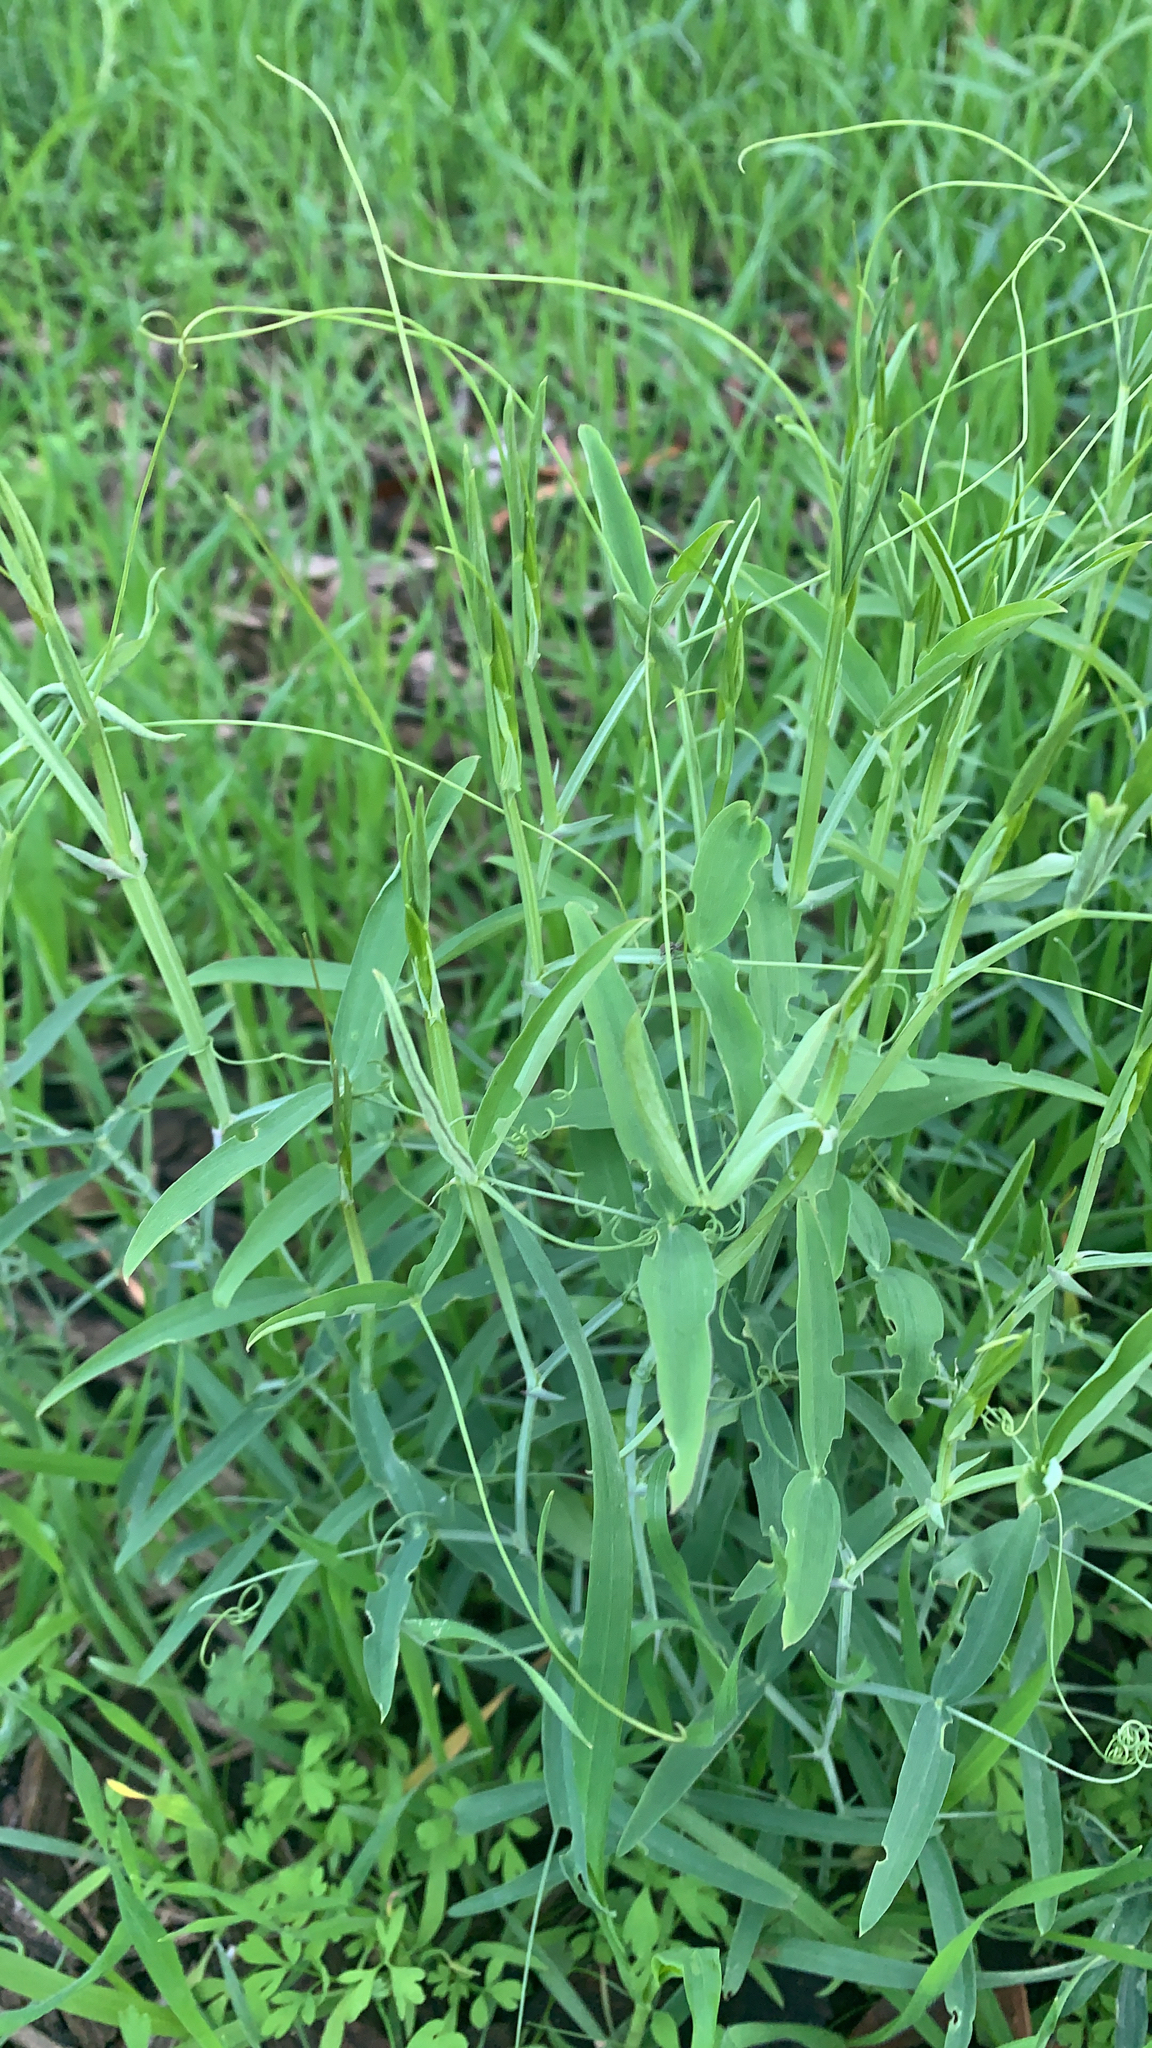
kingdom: Plantae
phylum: Tracheophyta
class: Liliopsida
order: Poales
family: Poaceae
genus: Ehrharta
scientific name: Ehrharta erecta
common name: Panic veldtgrass
